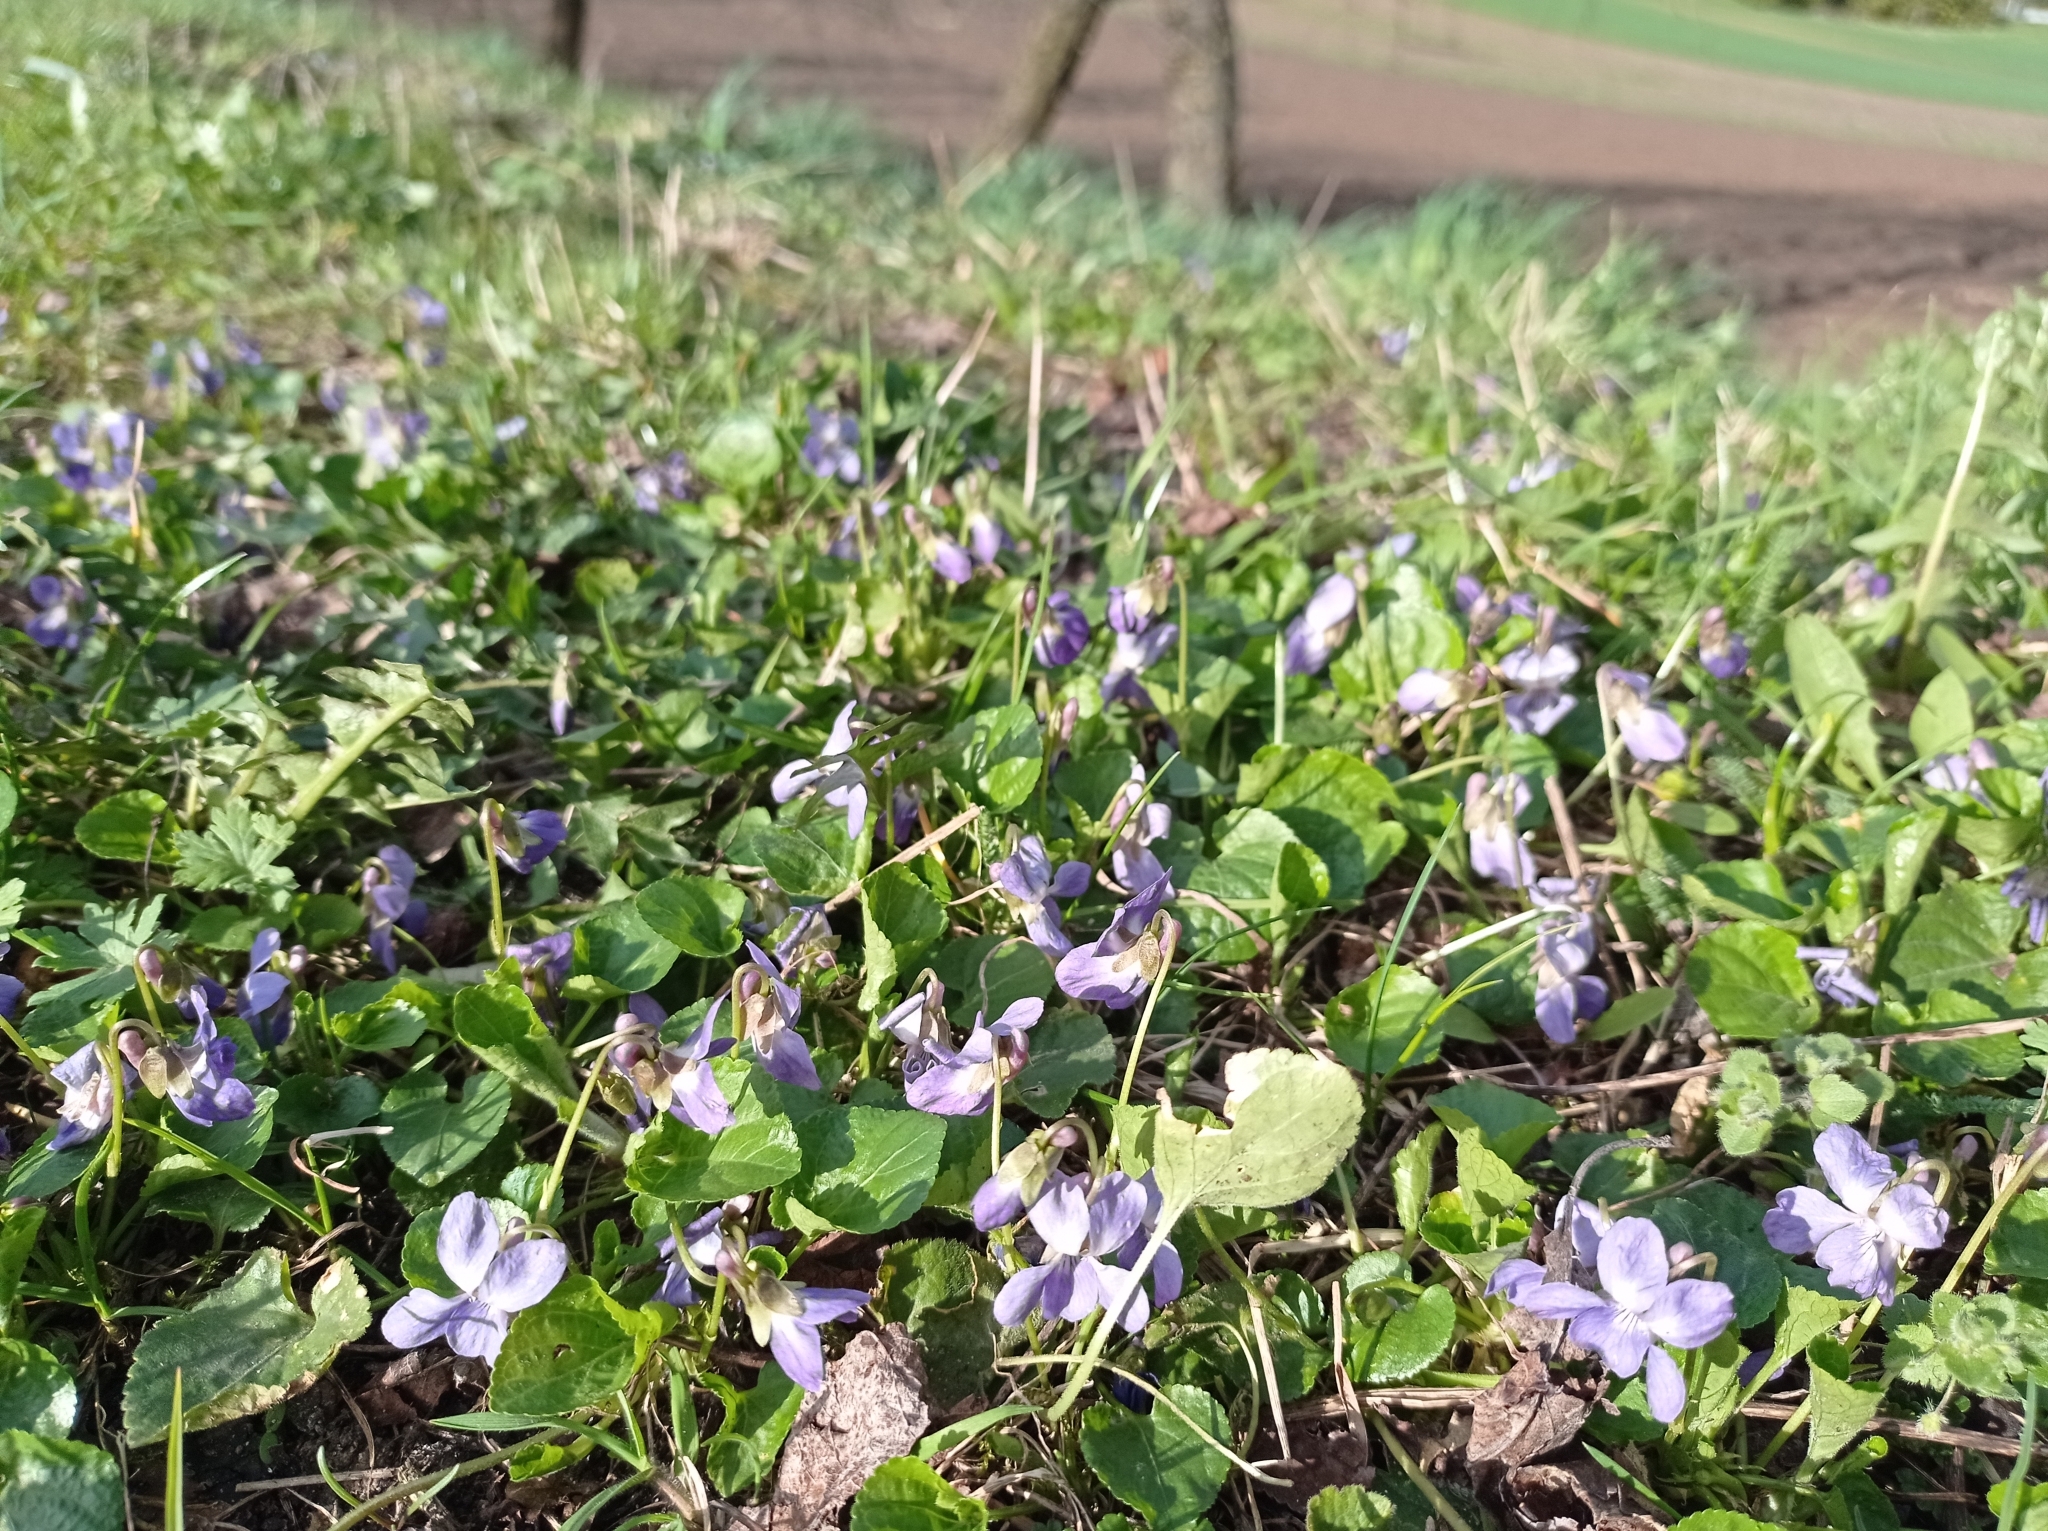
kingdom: Plantae
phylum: Tracheophyta
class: Magnoliopsida
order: Malpighiales
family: Violaceae
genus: Viola
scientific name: Viola odorata
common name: Sweet violet
